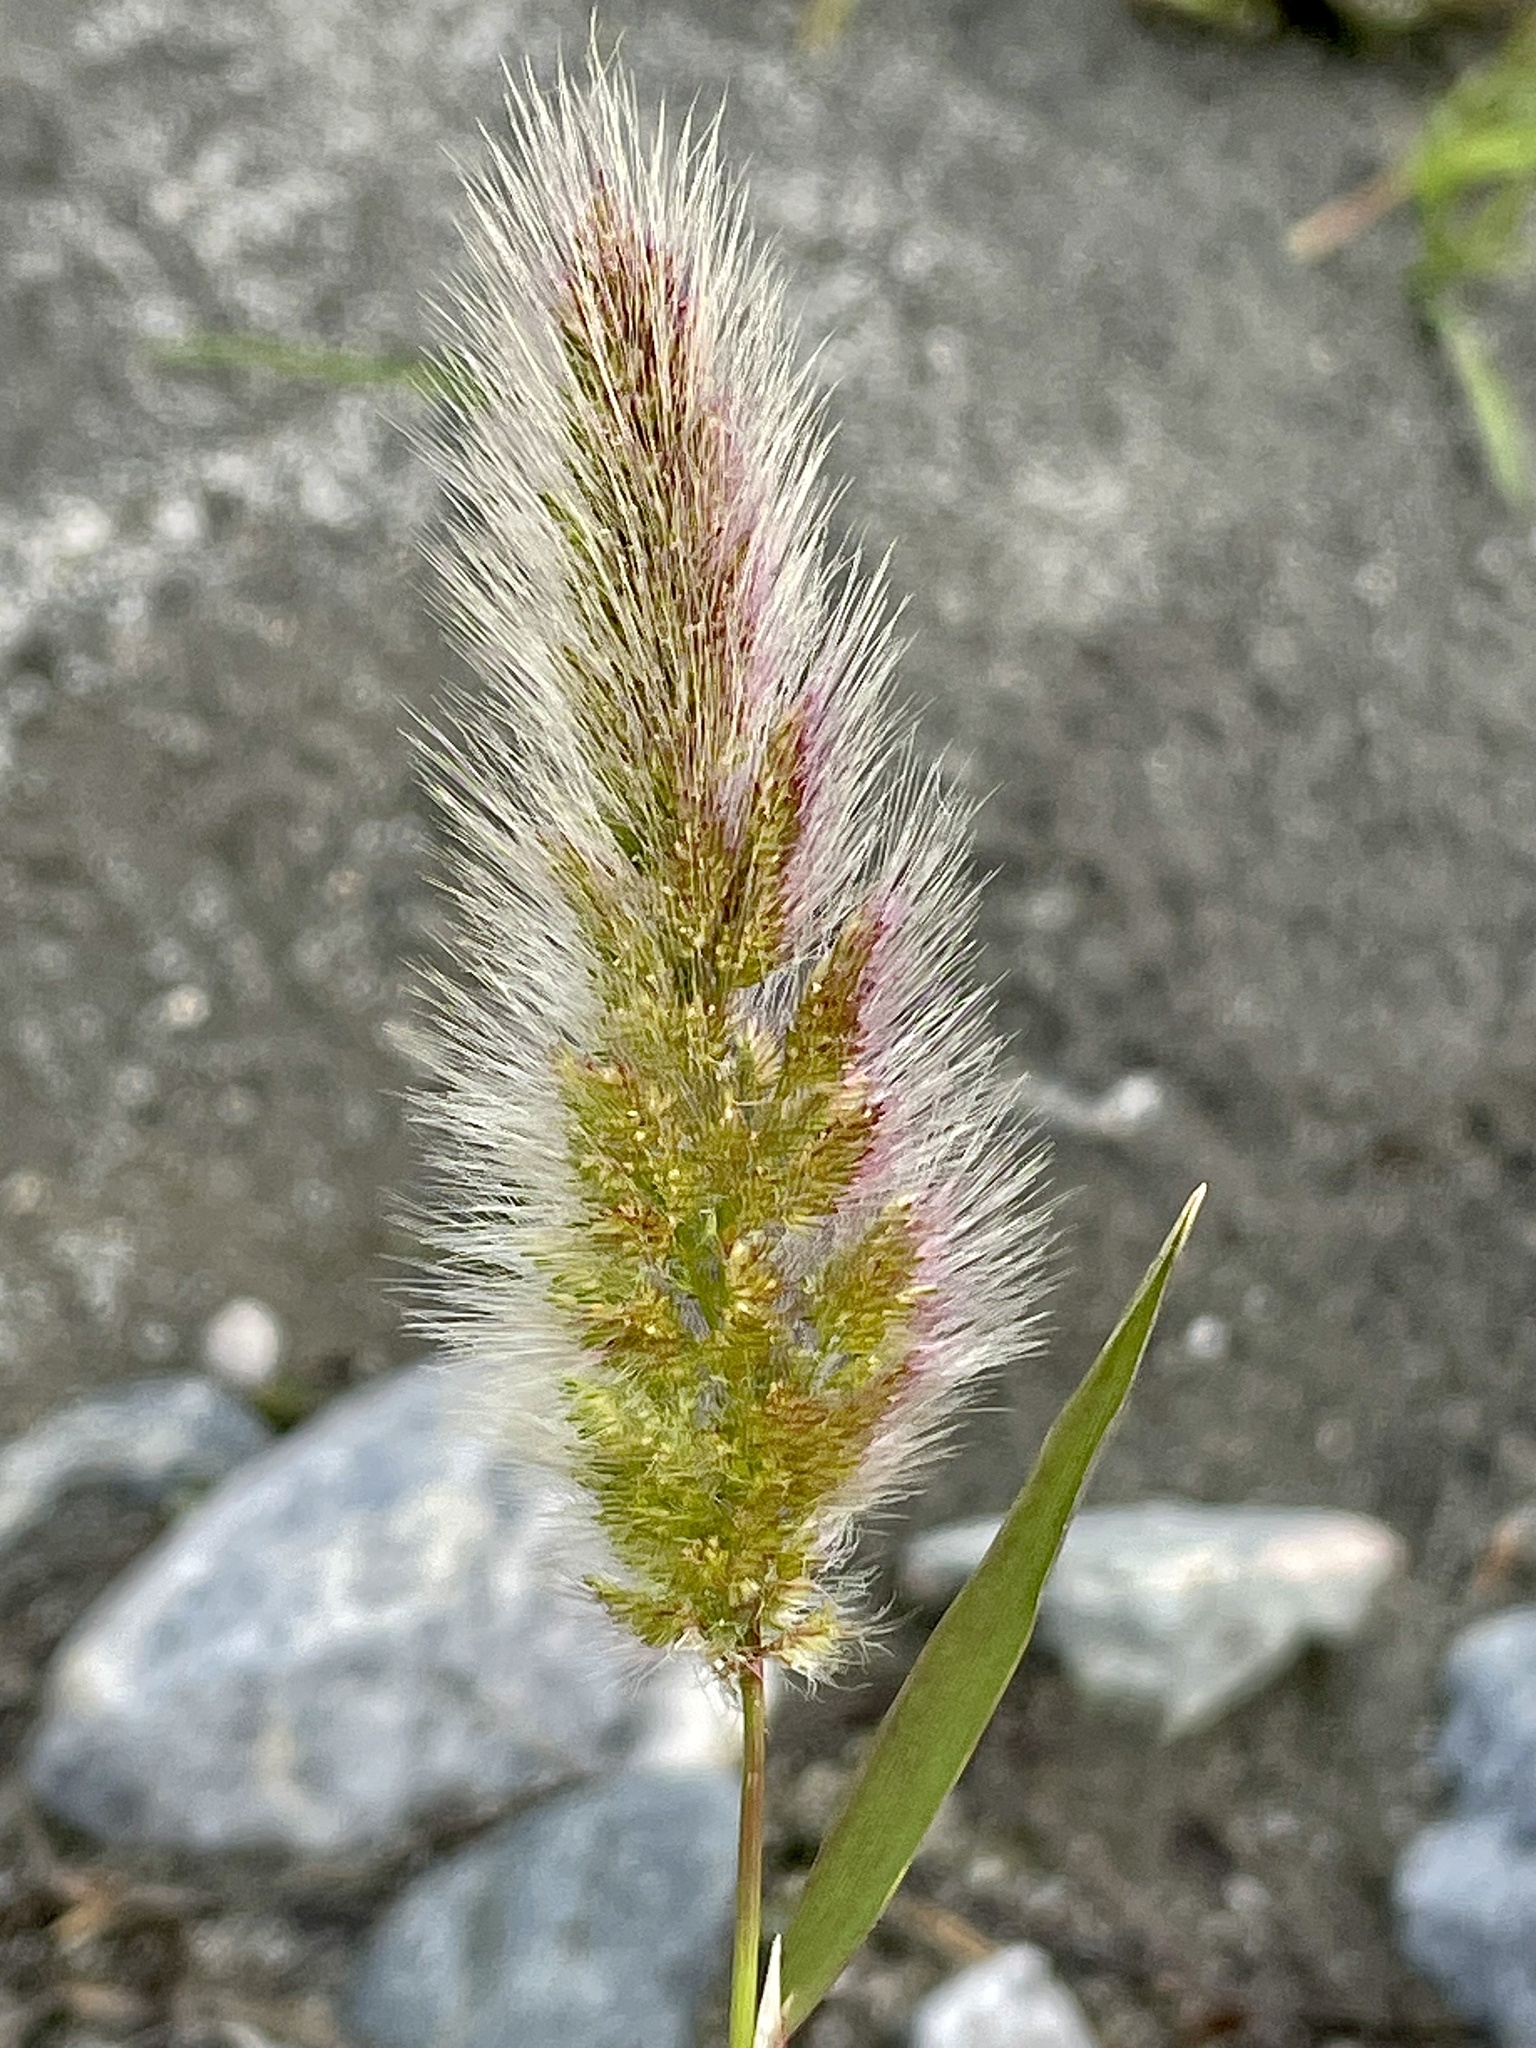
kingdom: Plantae
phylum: Tracheophyta
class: Liliopsida
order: Poales
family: Poaceae
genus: Polypogon
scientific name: Polypogon monspeliensis
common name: Annual rabbitsfoot grass
